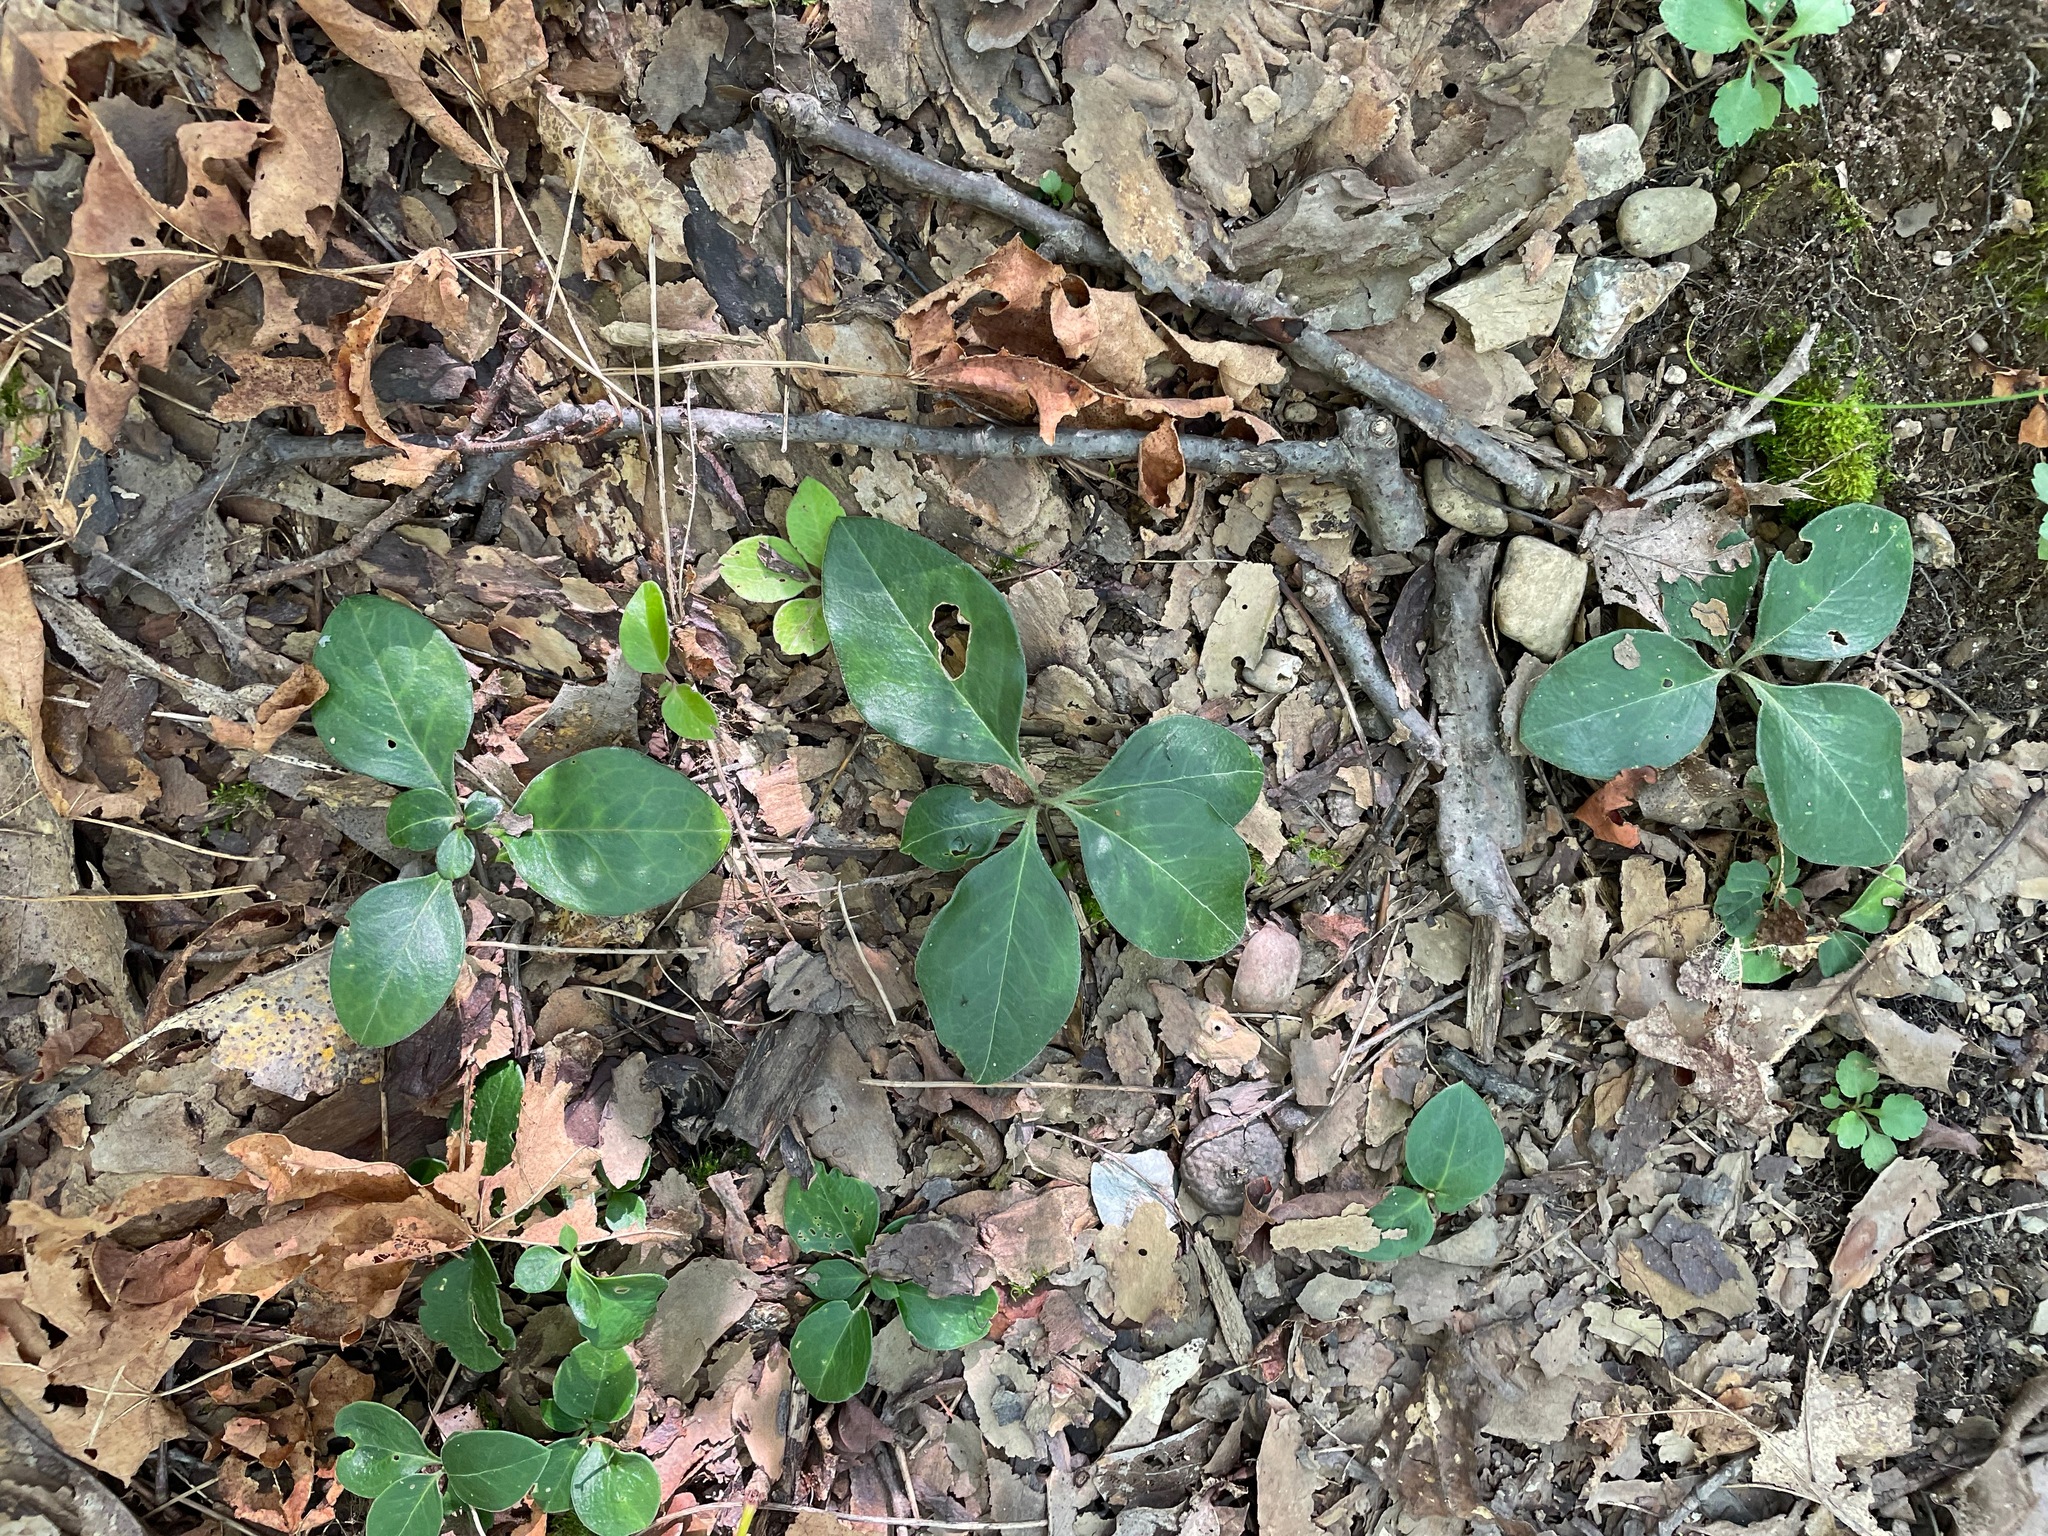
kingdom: Plantae
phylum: Tracheophyta
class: Magnoliopsida
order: Fabales
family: Polygalaceae
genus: Polygaloides
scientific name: Polygaloides paucifolia
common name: Bird-on-the-wing
